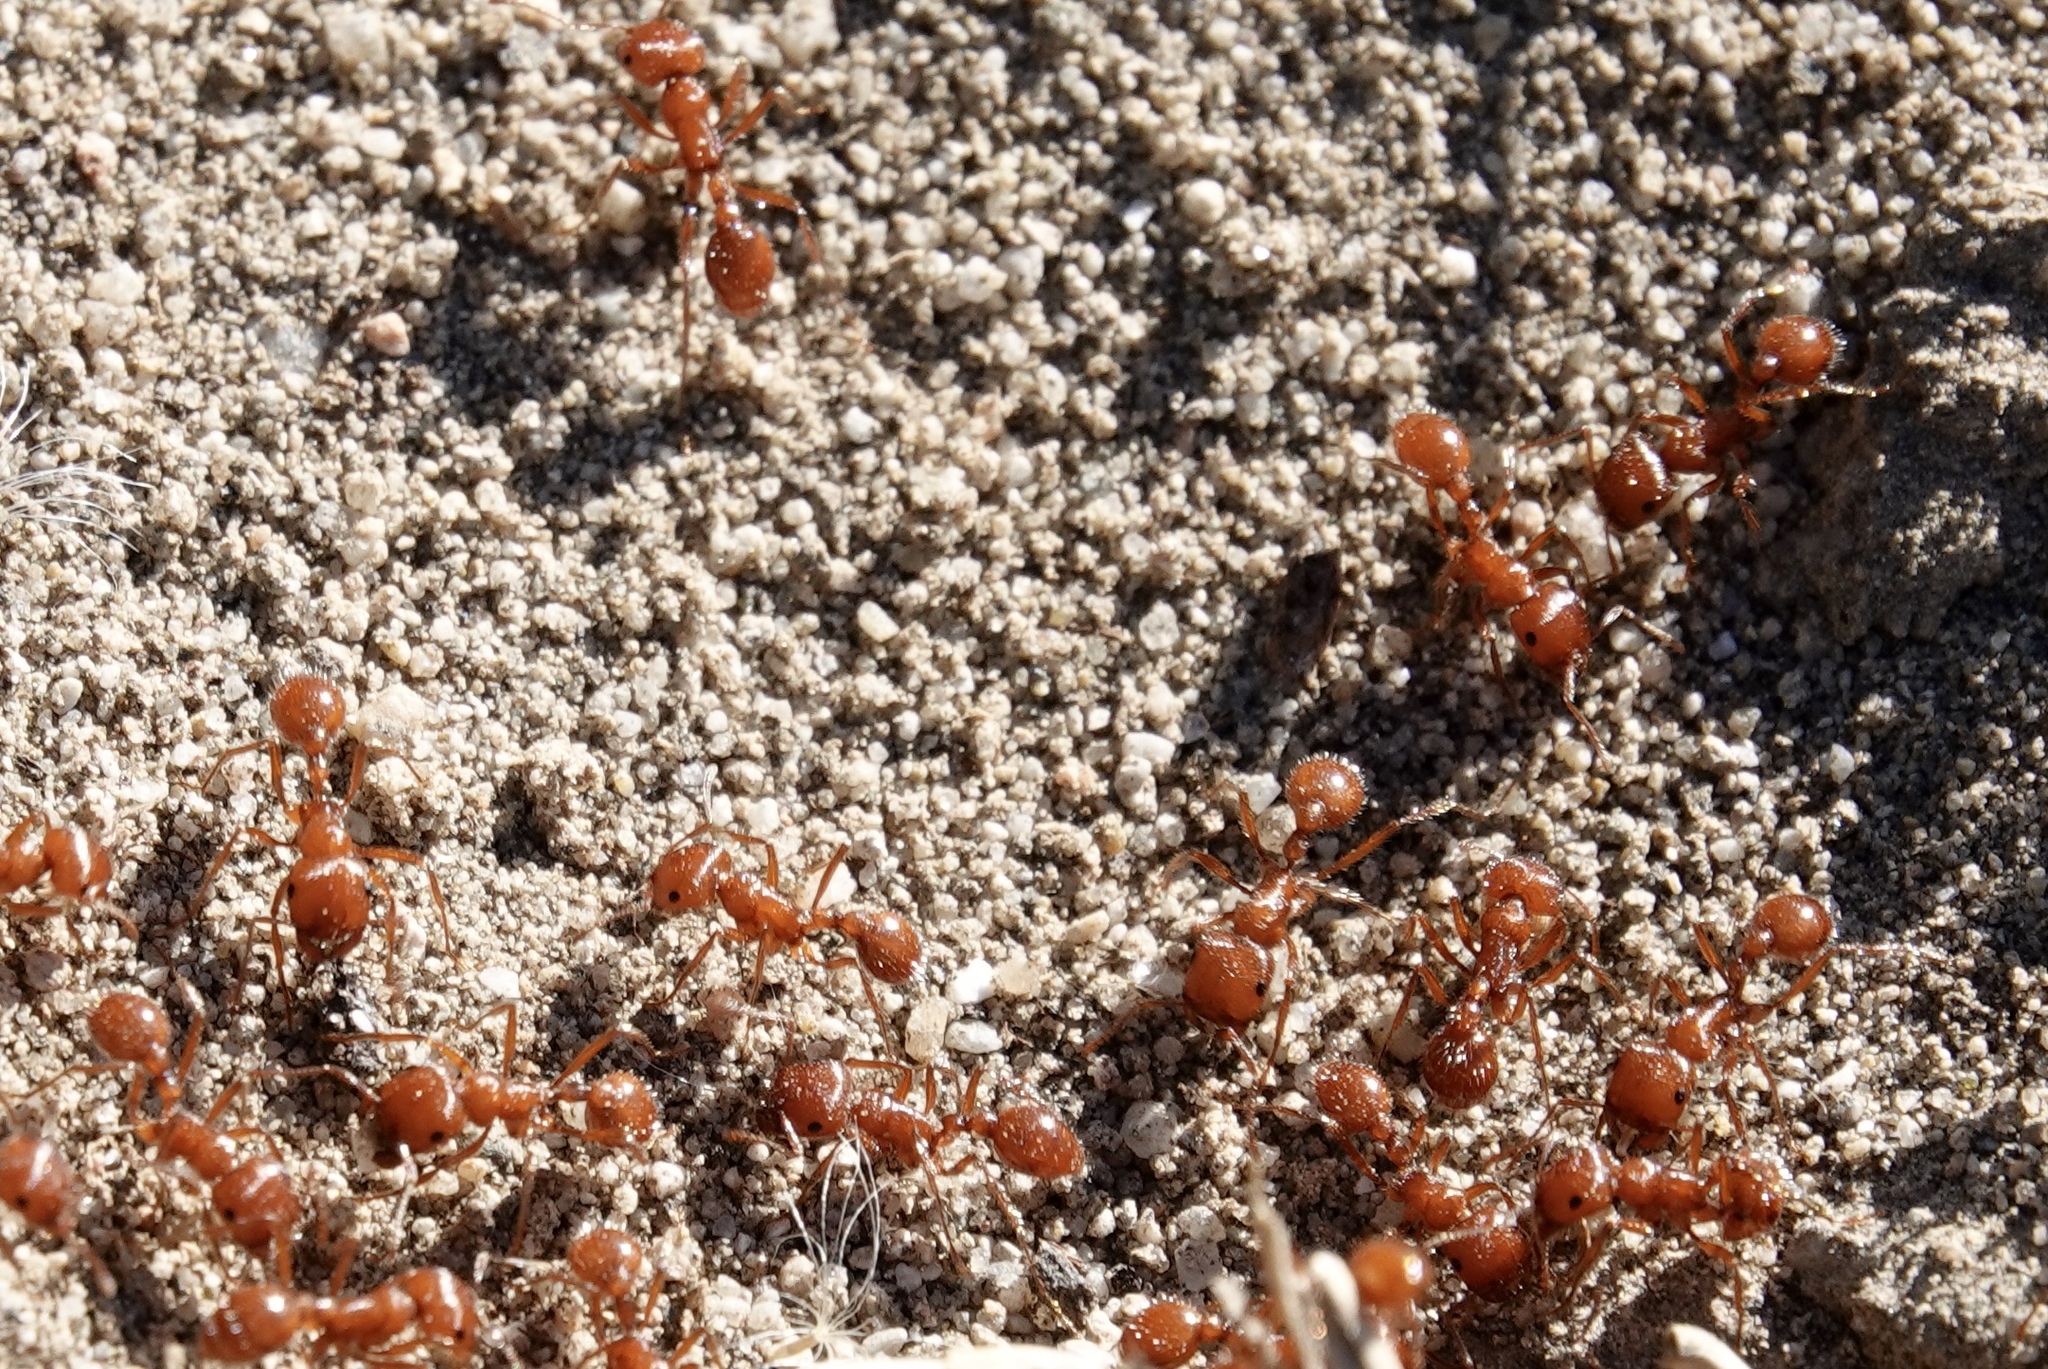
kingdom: Animalia
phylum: Arthropoda
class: Insecta
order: Hymenoptera
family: Formicidae
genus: Pogonomyrmex
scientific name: Pogonomyrmex californicus
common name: California harvester ant
